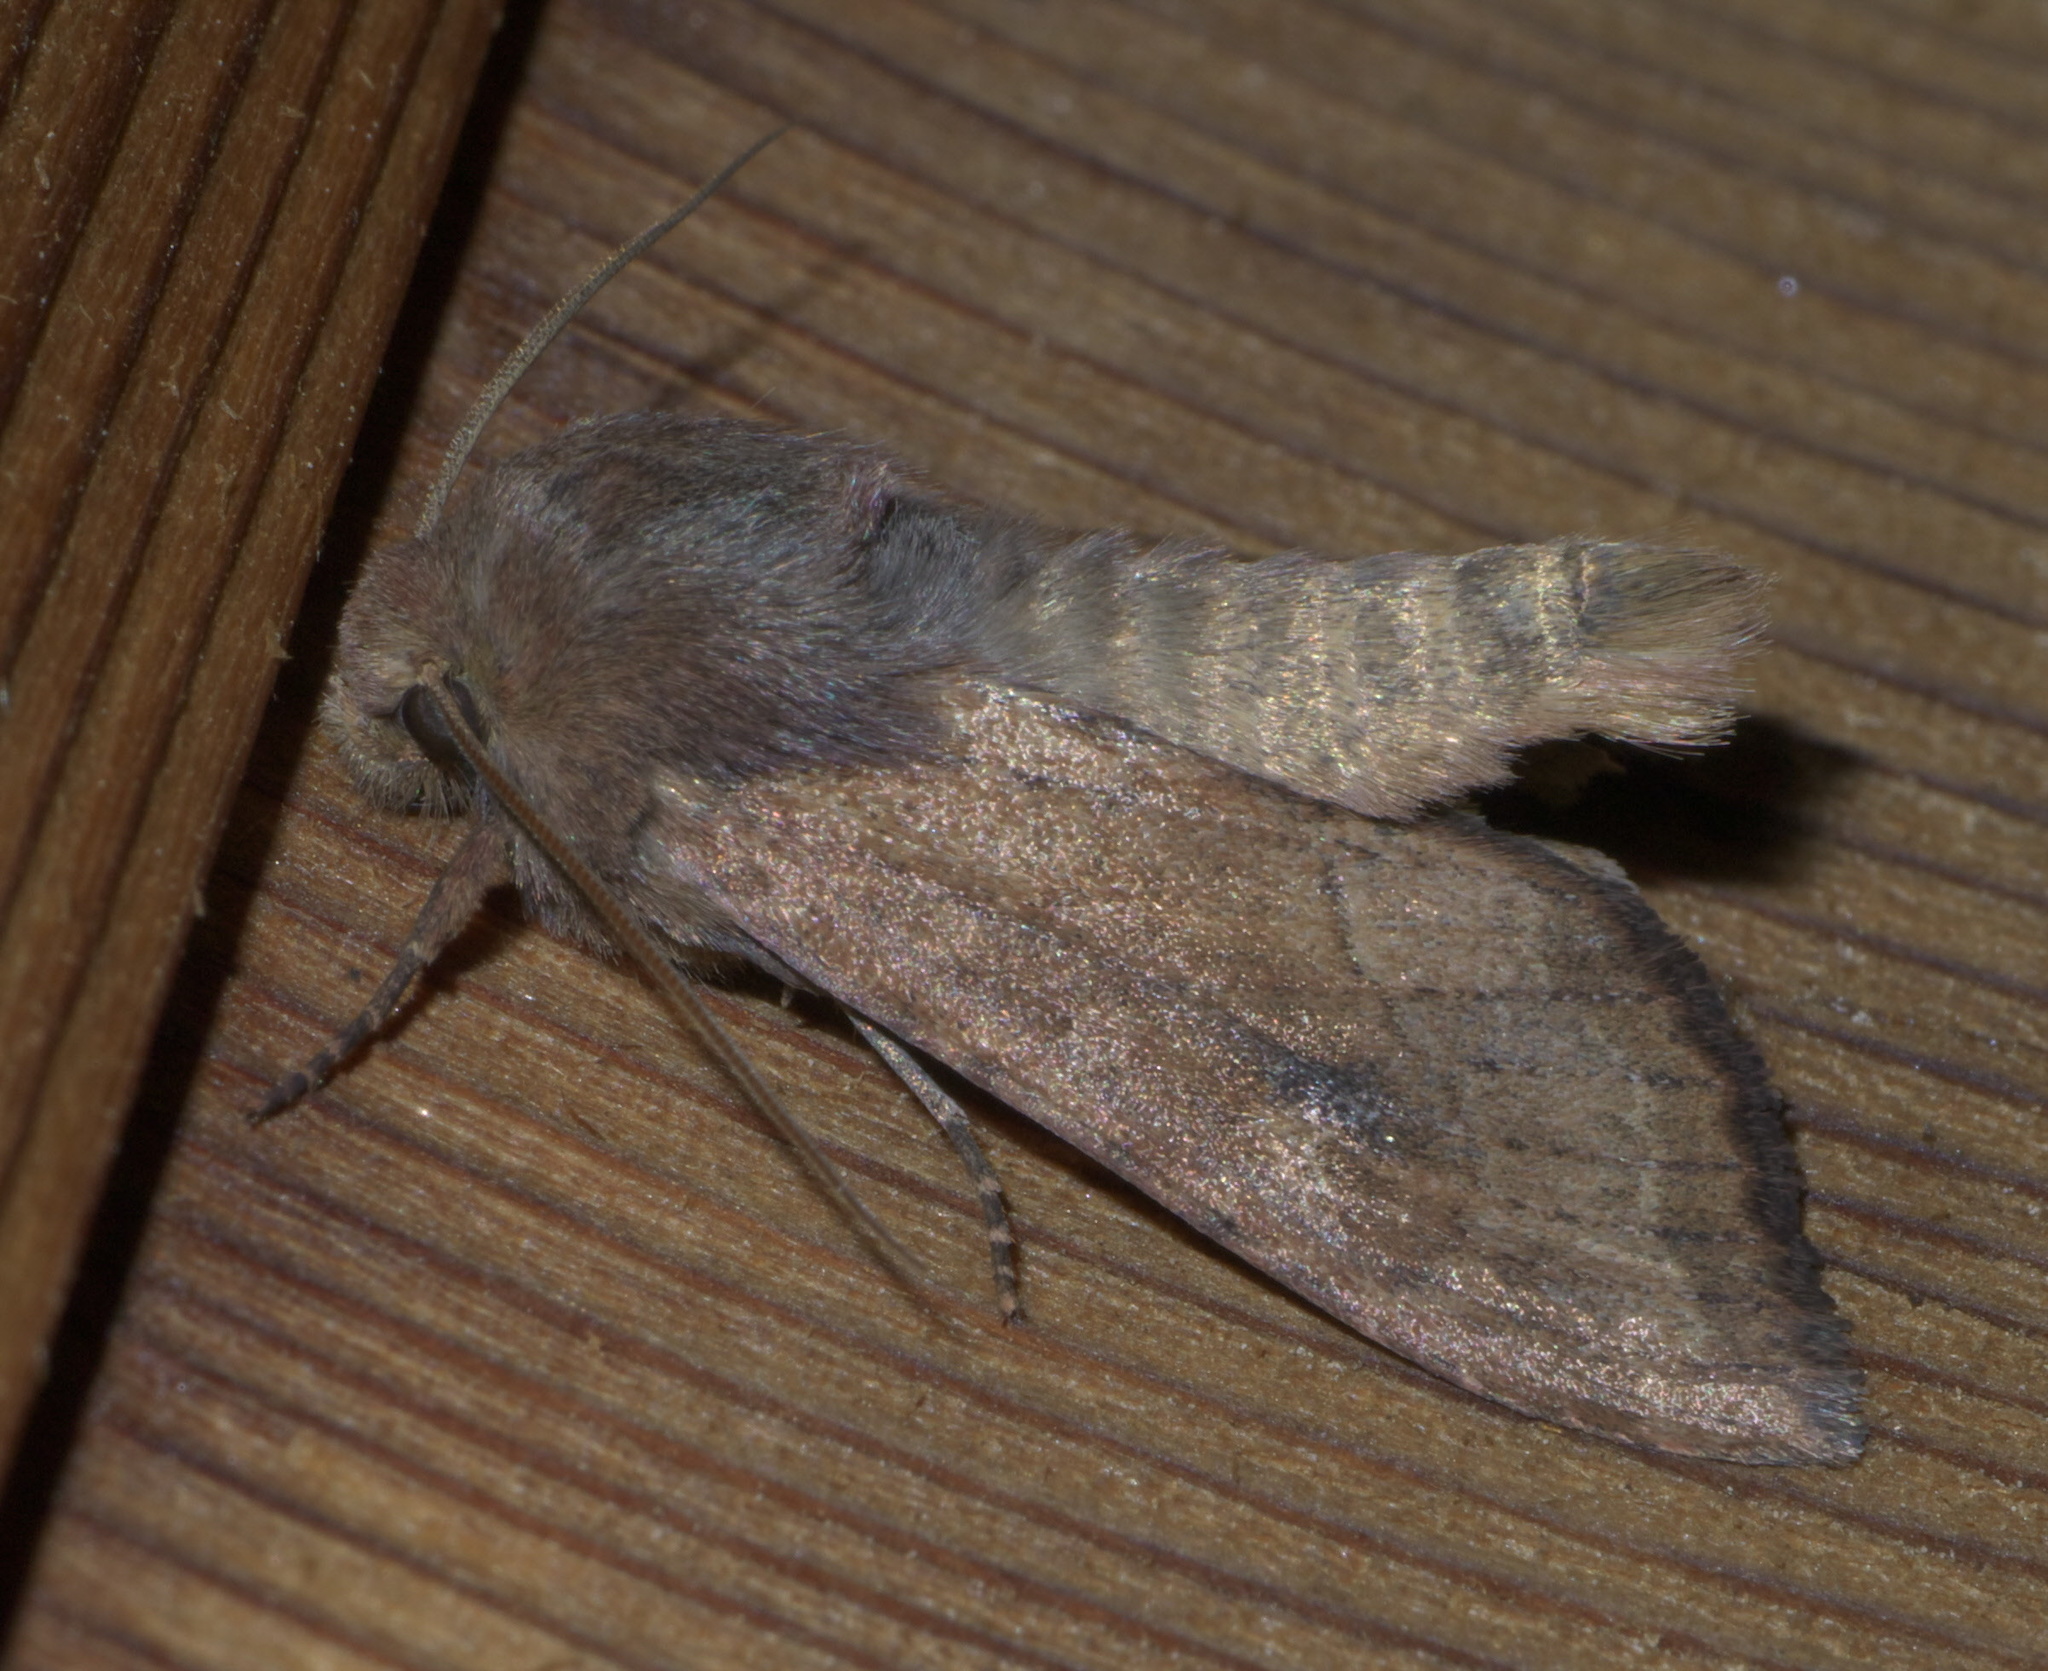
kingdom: Animalia
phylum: Arthropoda
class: Insecta
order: Lepidoptera
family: Noctuidae
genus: Apamea
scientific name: Apamea inficita
